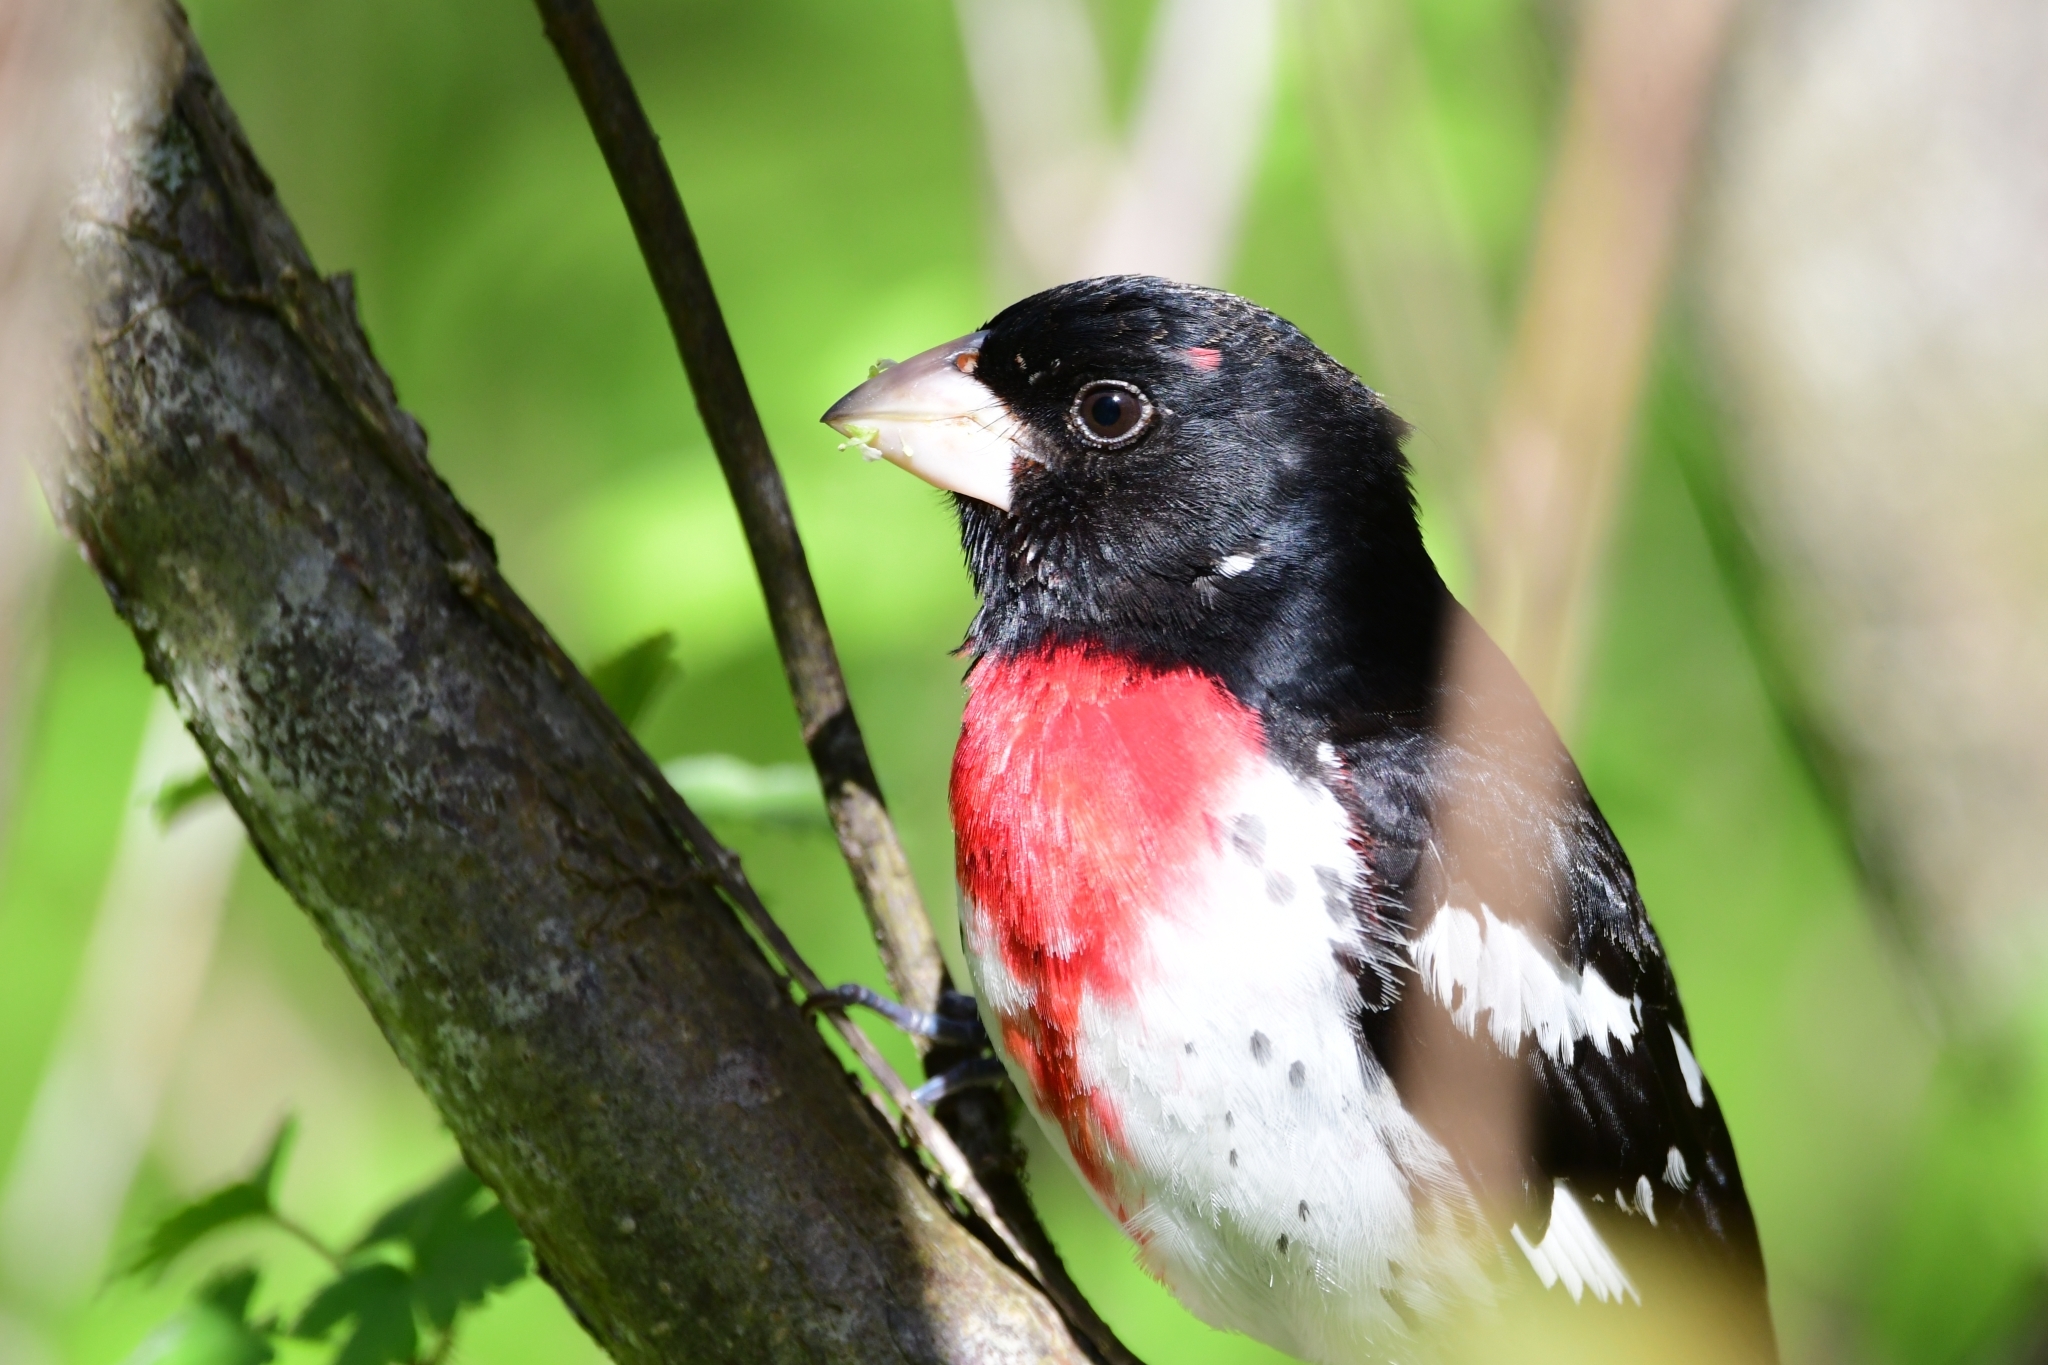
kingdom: Animalia
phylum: Chordata
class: Aves
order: Passeriformes
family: Cardinalidae
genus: Pheucticus
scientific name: Pheucticus ludovicianus
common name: Rose-breasted grosbeak
